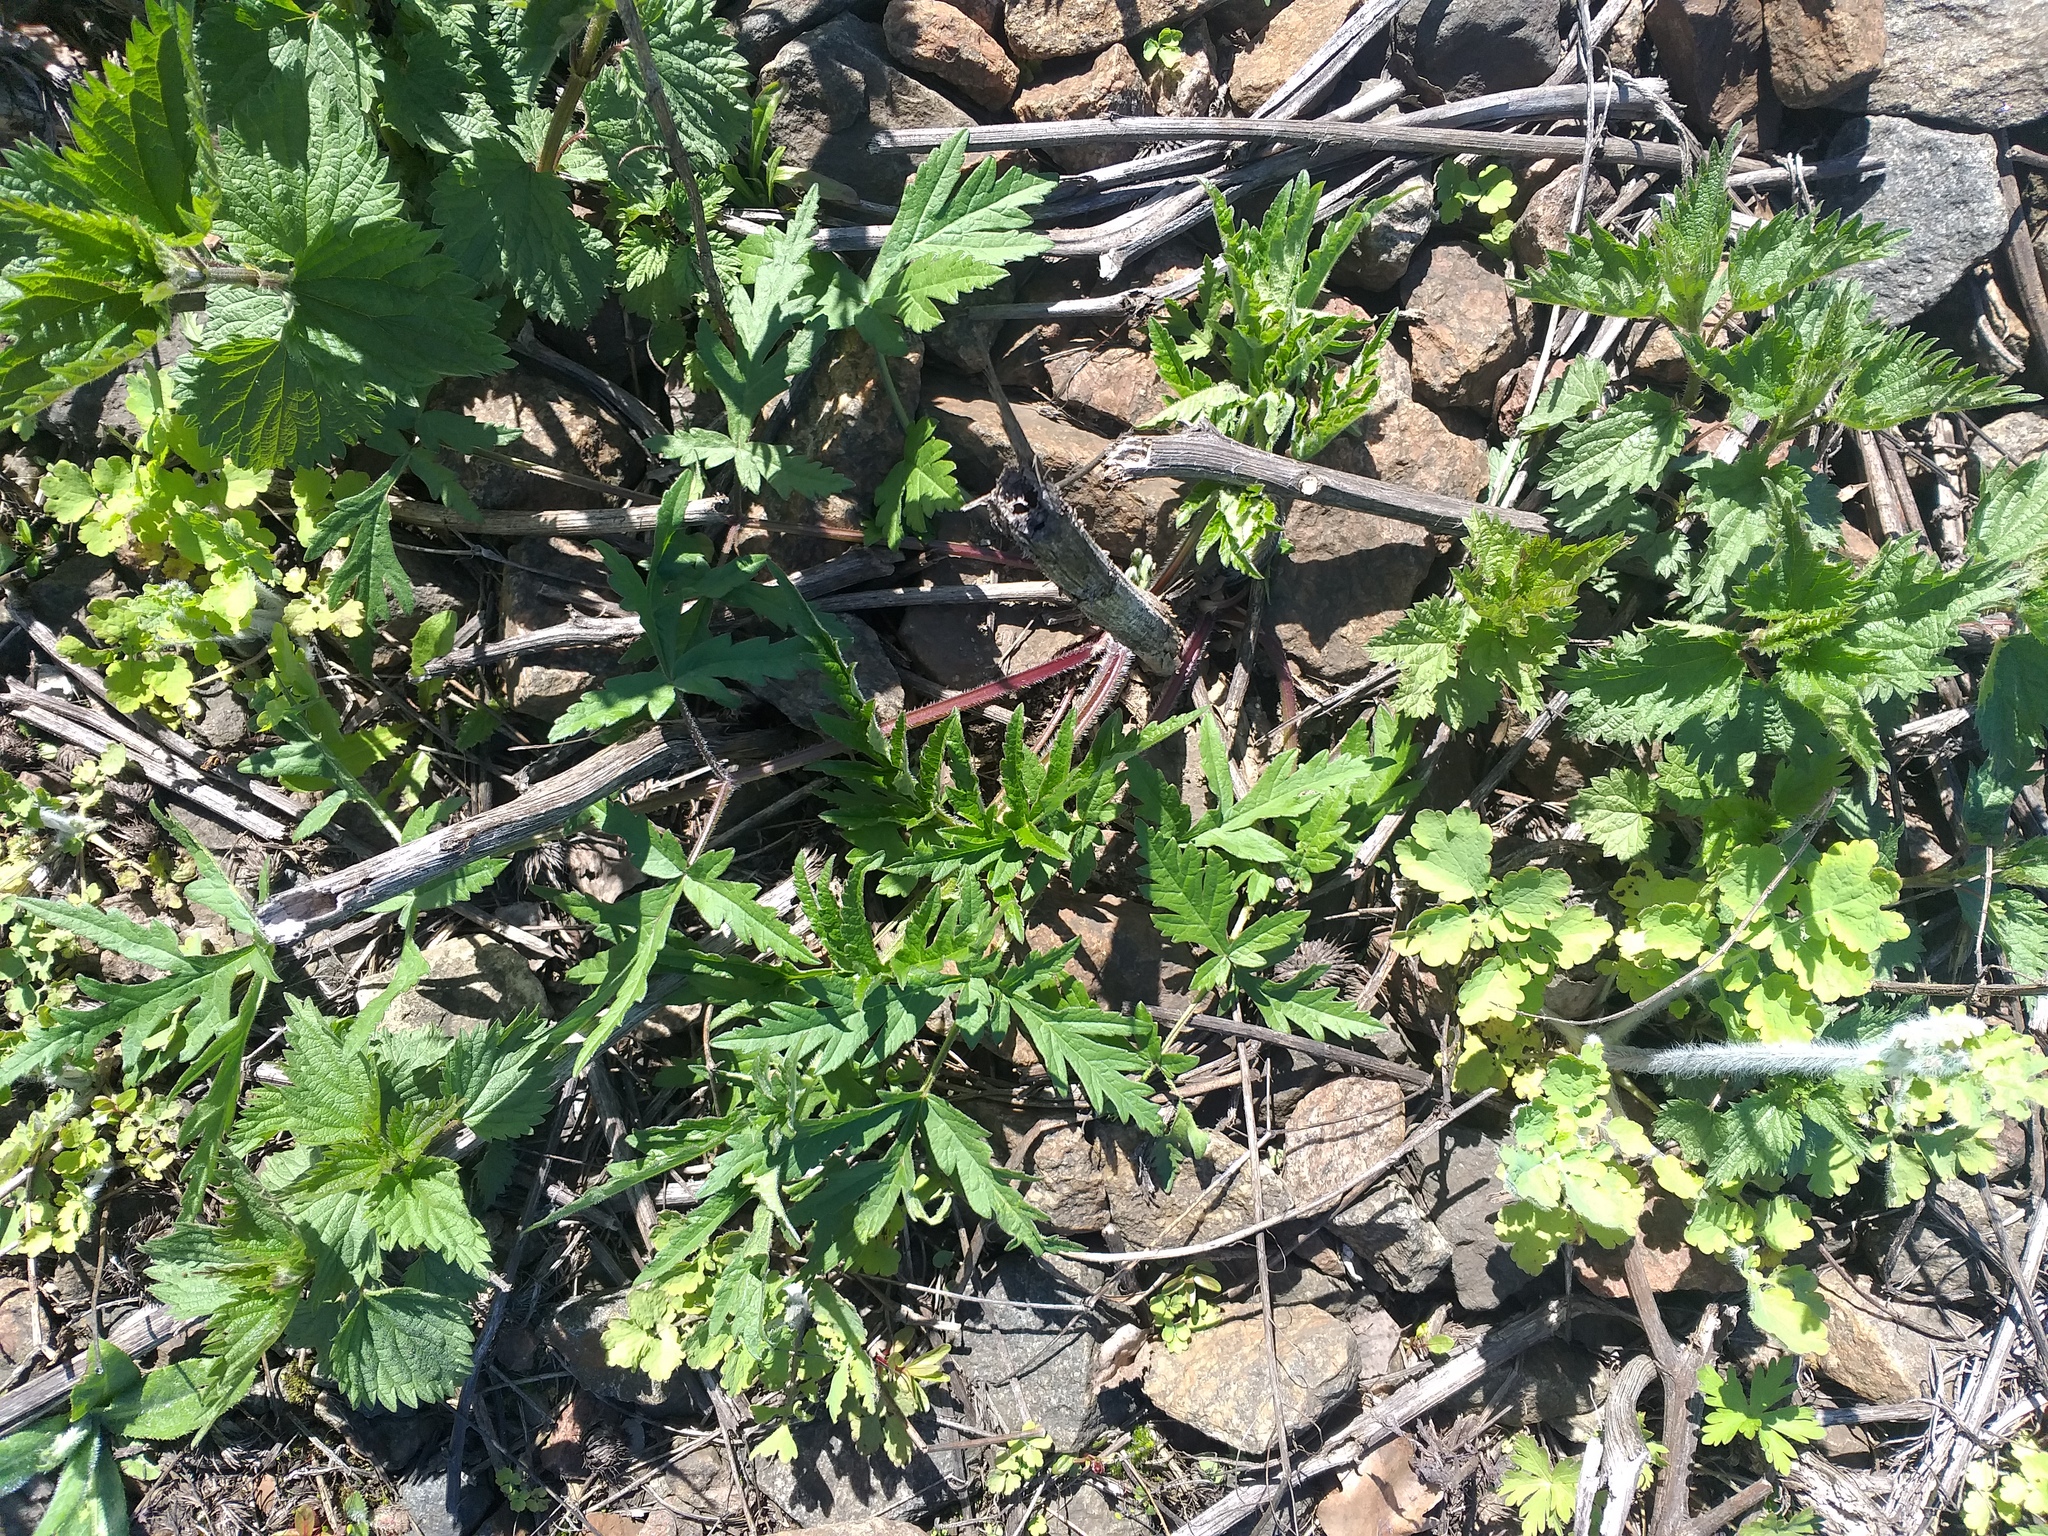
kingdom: Plantae
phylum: Tracheophyta
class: Magnoliopsida
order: Apiales
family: Apiaceae
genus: Heracleum
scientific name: Heracleum sphondylium
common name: Hogweed
